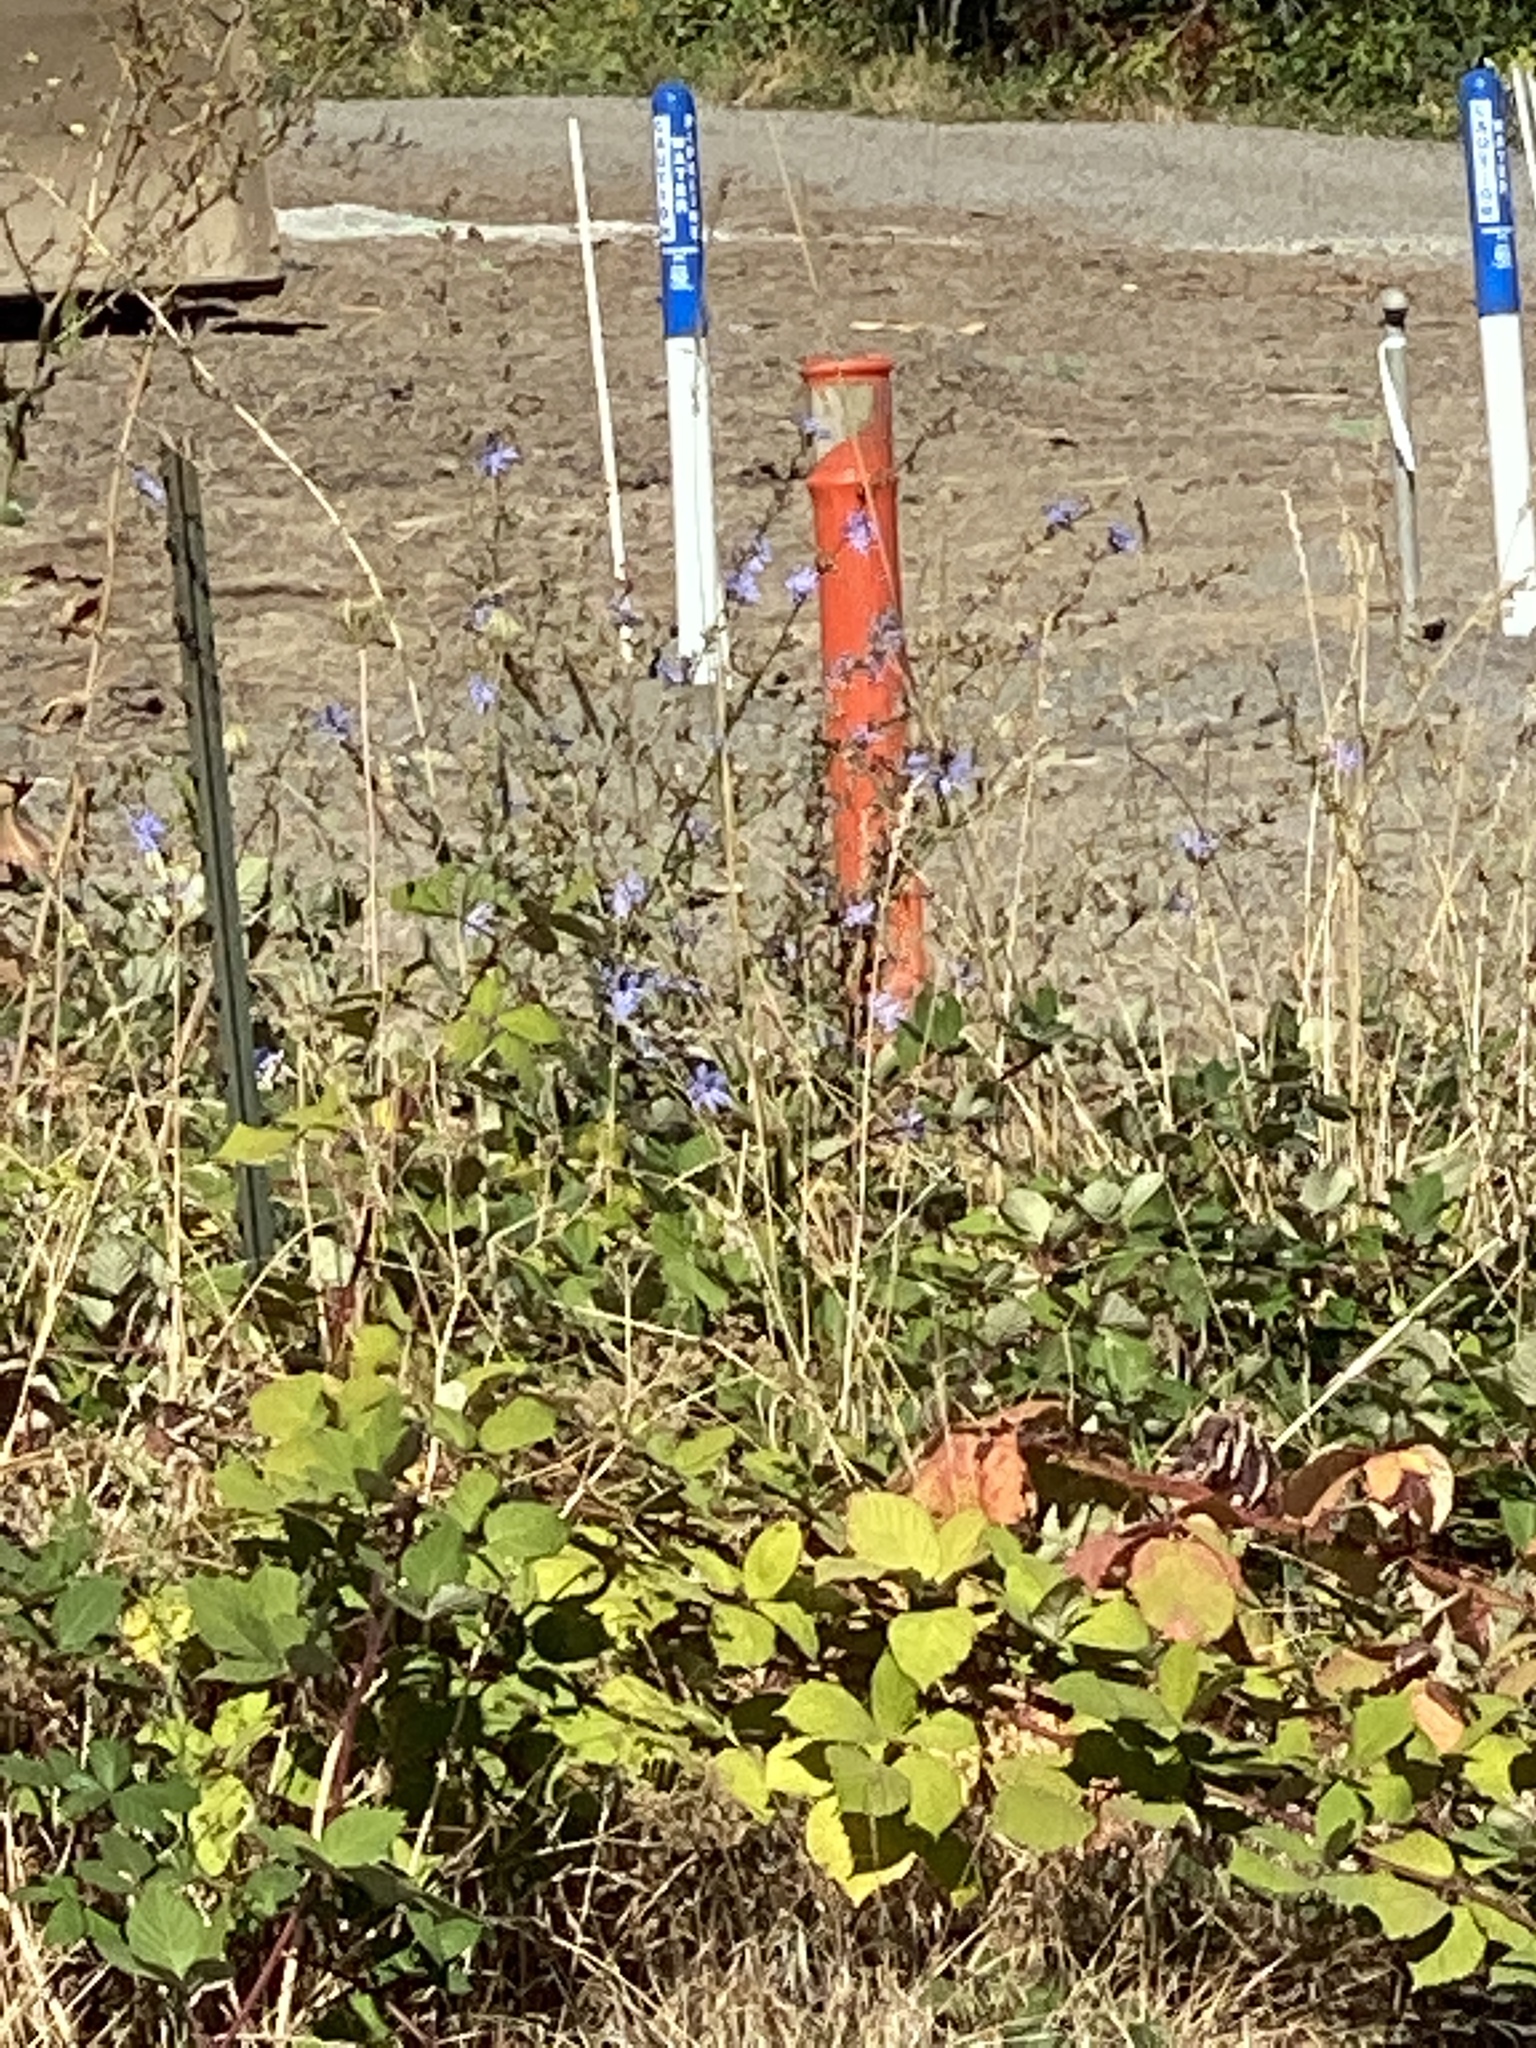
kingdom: Plantae
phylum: Tracheophyta
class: Magnoliopsida
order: Asterales
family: Asteraceae
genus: Cichorium
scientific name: Cichorium intybus
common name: Chicory
